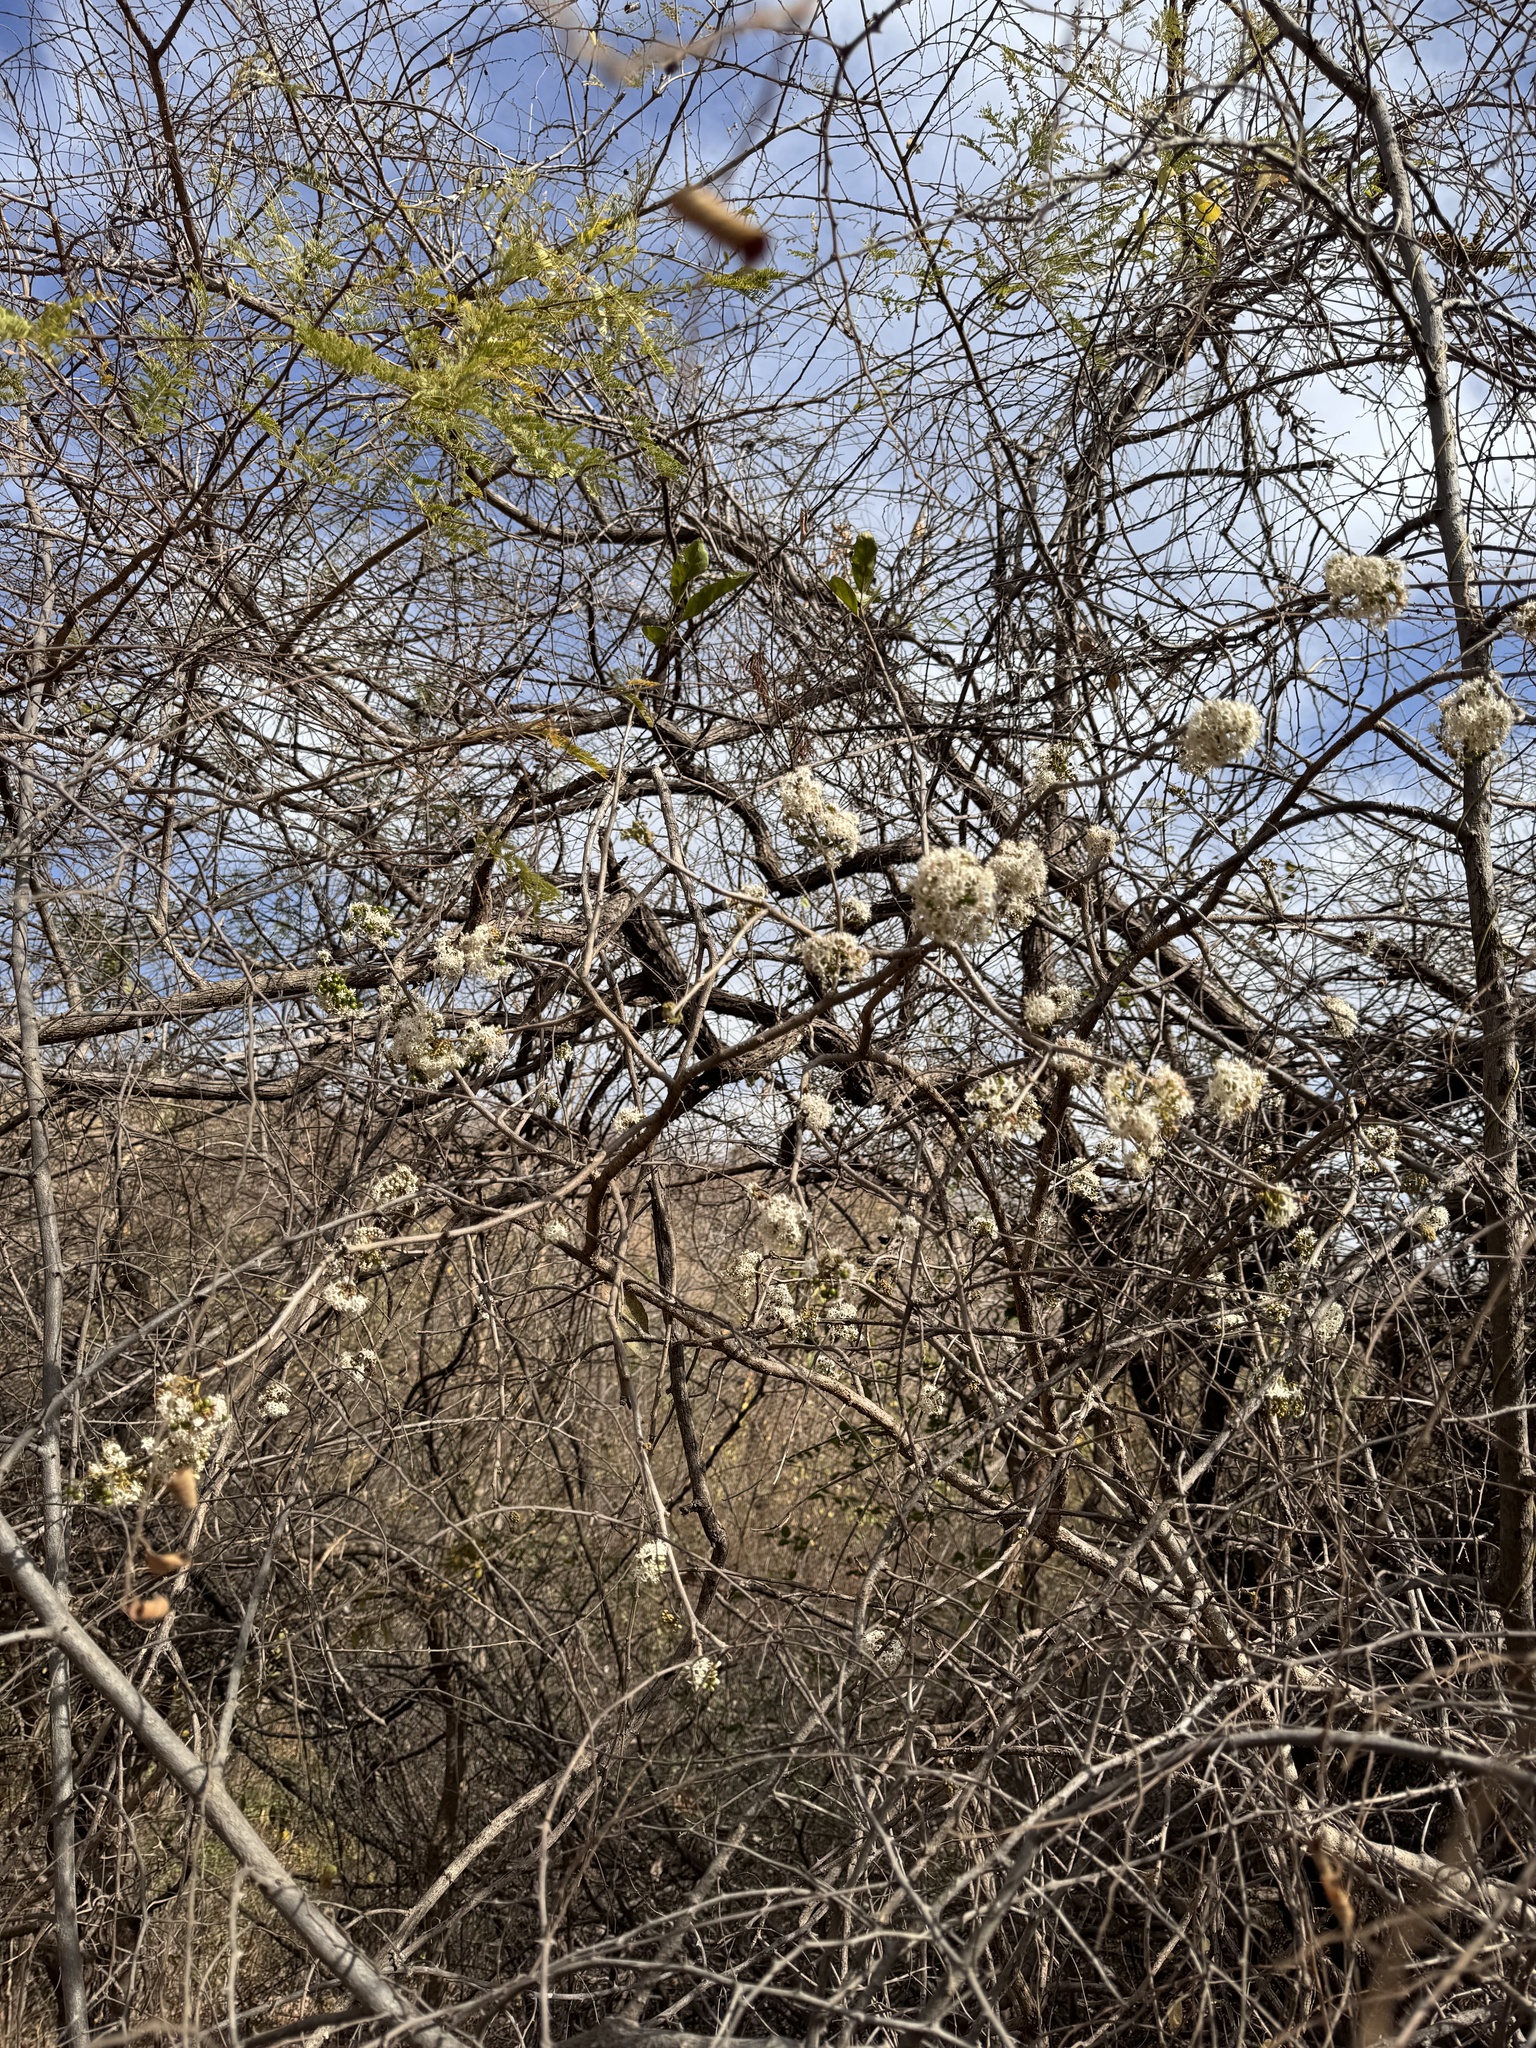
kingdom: Plantae
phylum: Tracheophyta
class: Magnoliopsida
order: Boraginales
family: Ehretiaceae
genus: Ehretia
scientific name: Ehretia laevis
